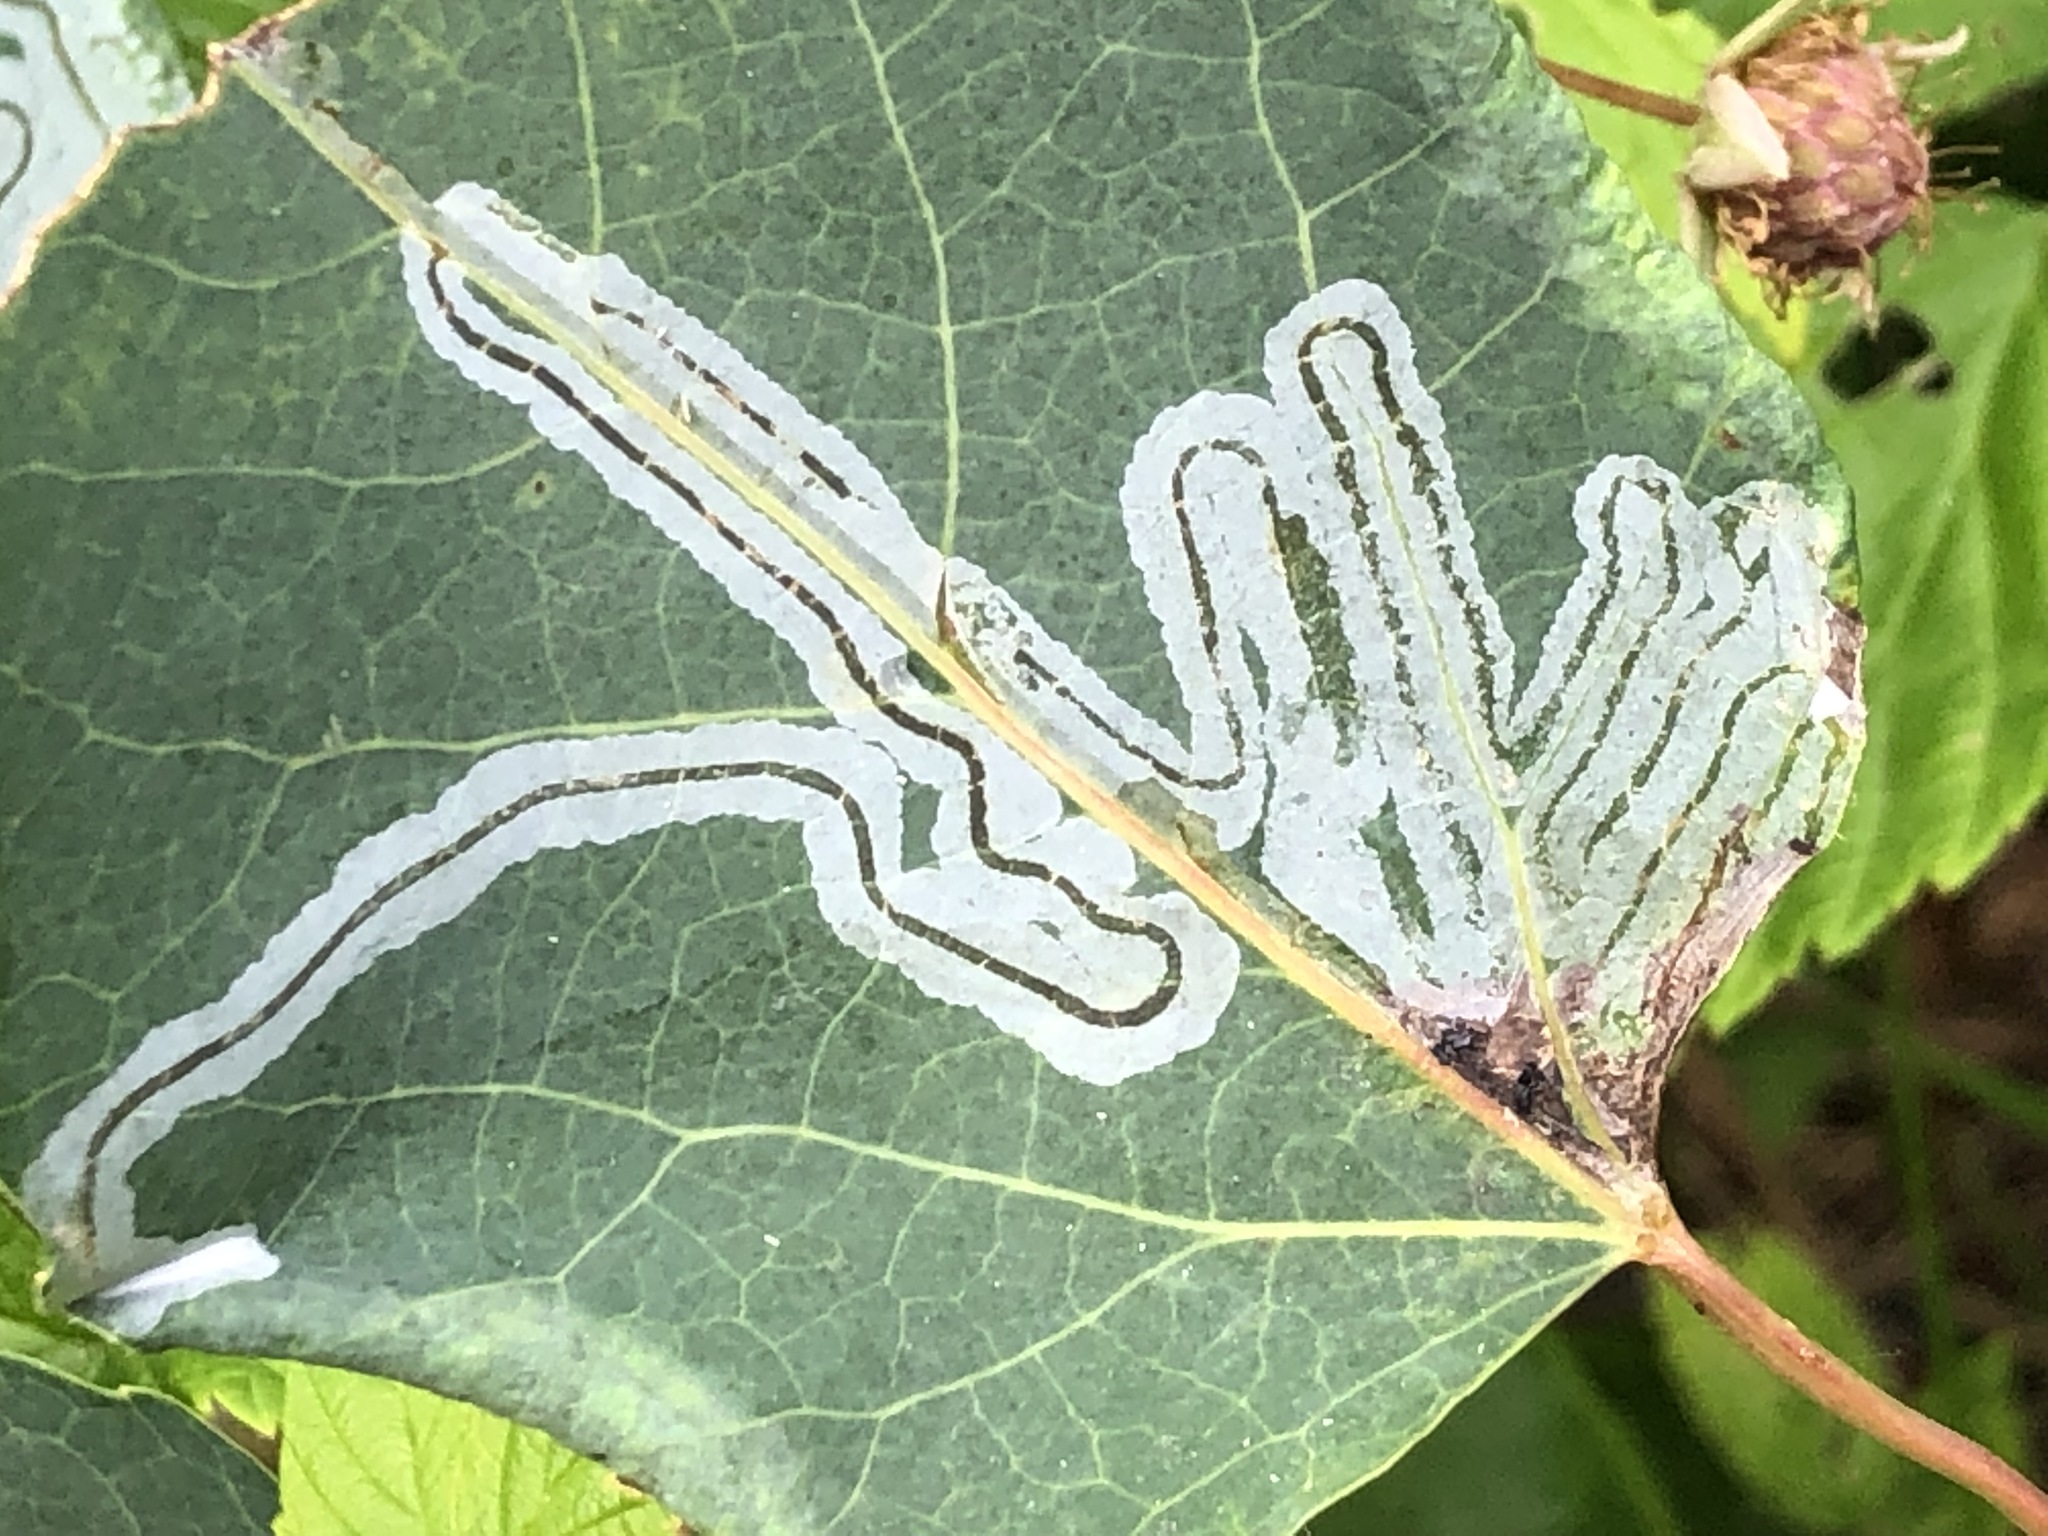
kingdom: Animalia
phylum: Arthropoda
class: Insecta
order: Lepidoptera
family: Gracillariidae
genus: Phyllocnistis
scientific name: Phyllocnistis populiella
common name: Aspen serpentine leafminer moth
